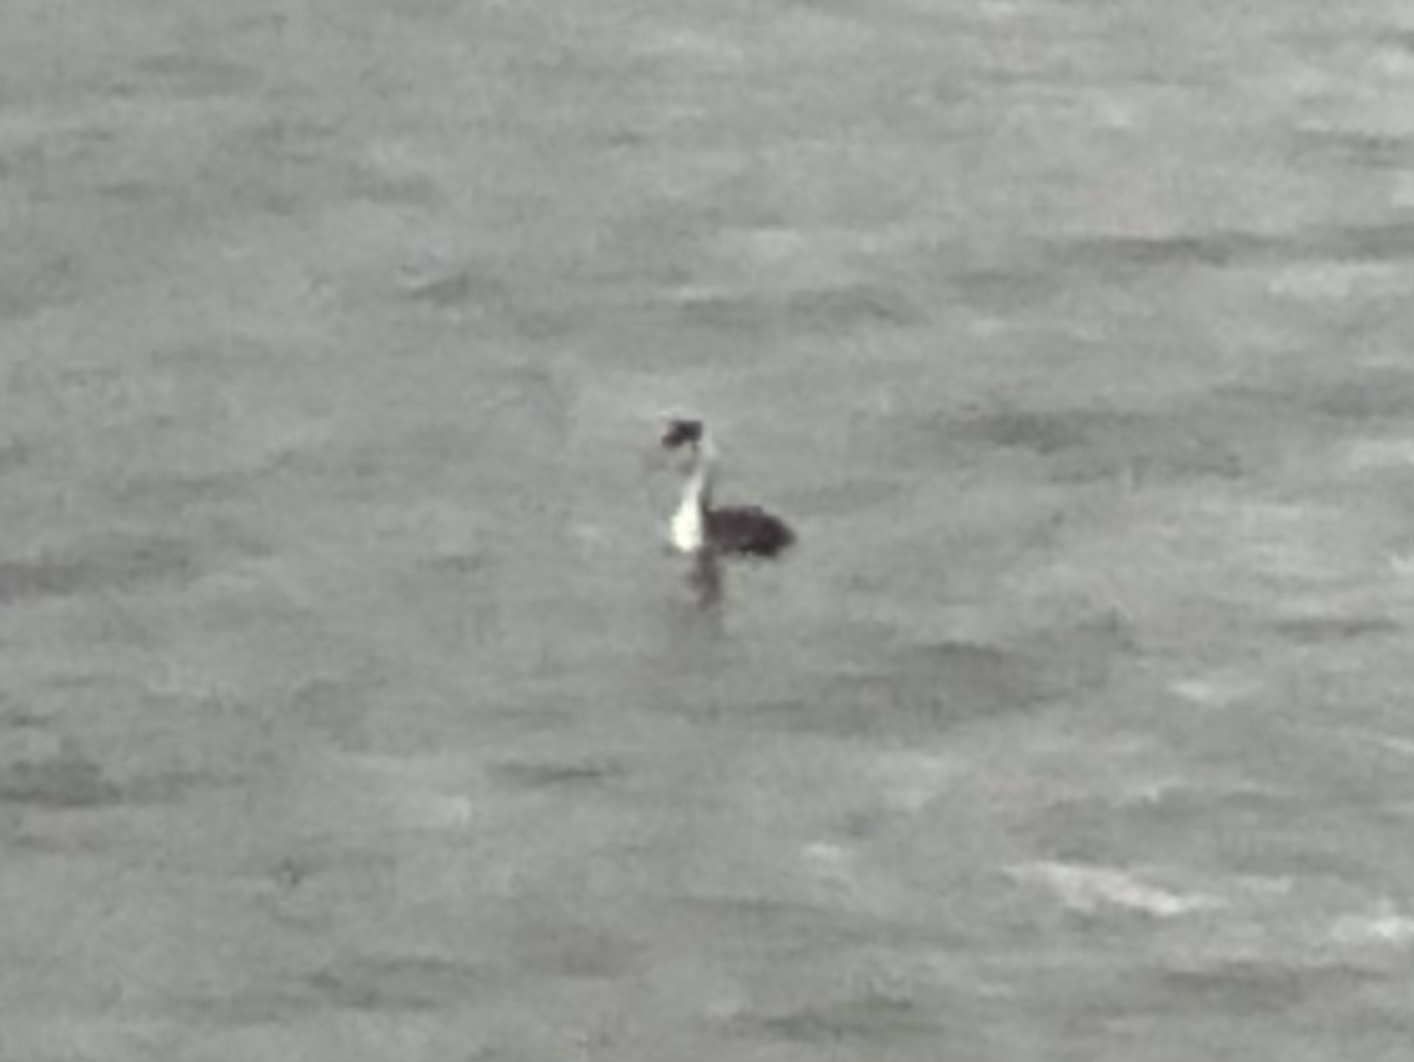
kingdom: Animalia
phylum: Chordata
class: Aves
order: Podicipediformes
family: Podicipedidae
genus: Podiceps
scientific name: Podiceps cristatus
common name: Great crested grebe
